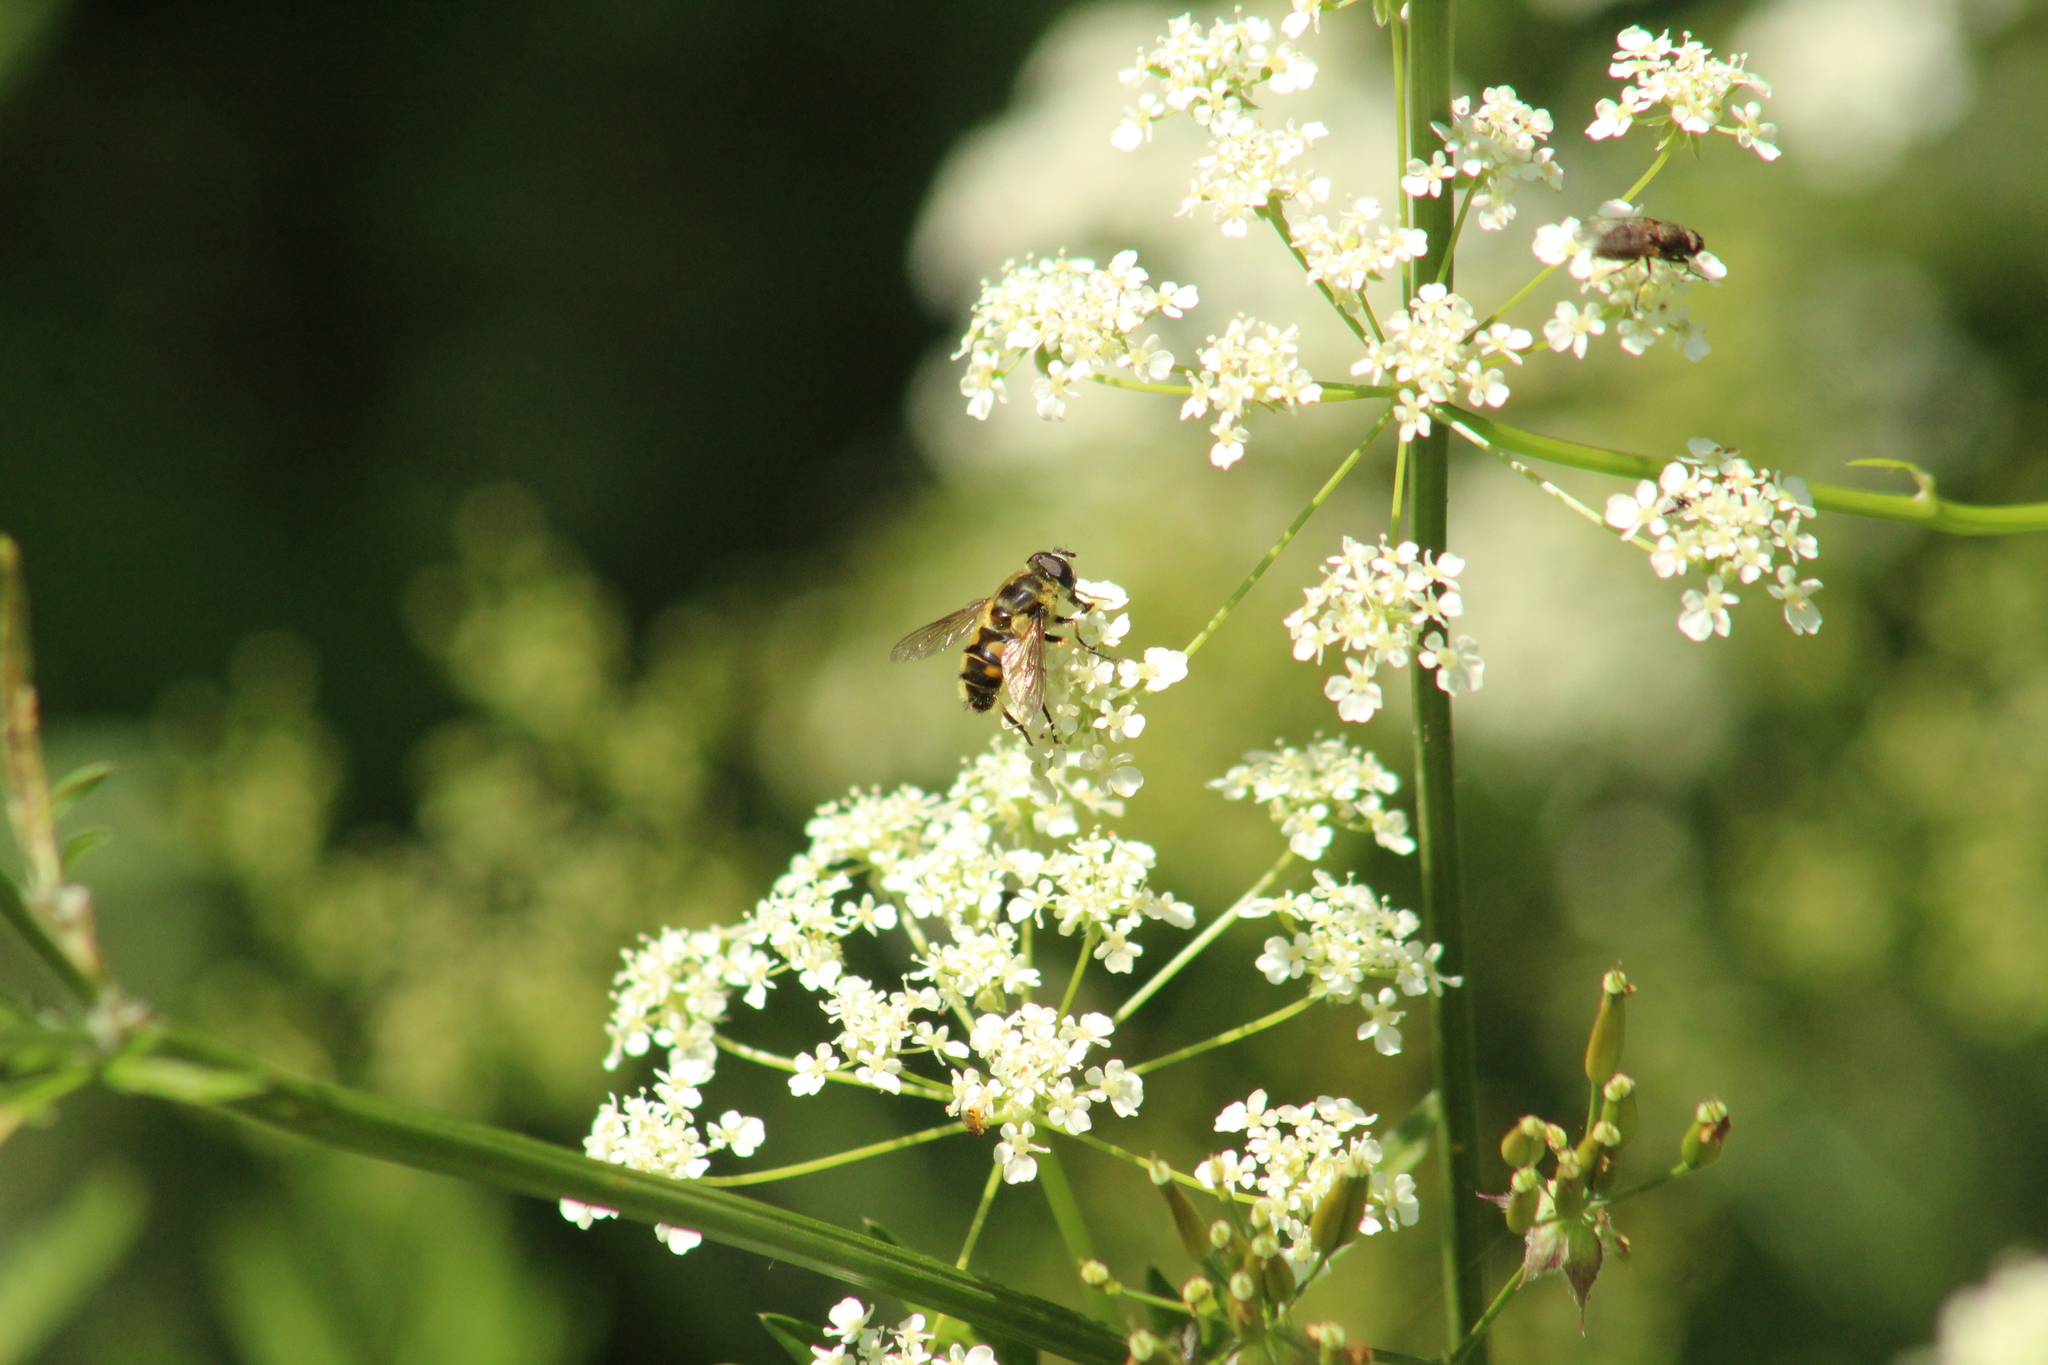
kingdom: Animalia
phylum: Arthropoda
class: Insecta
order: Diptera
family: Syrphidae
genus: Myathropa
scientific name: Myathropa florea
